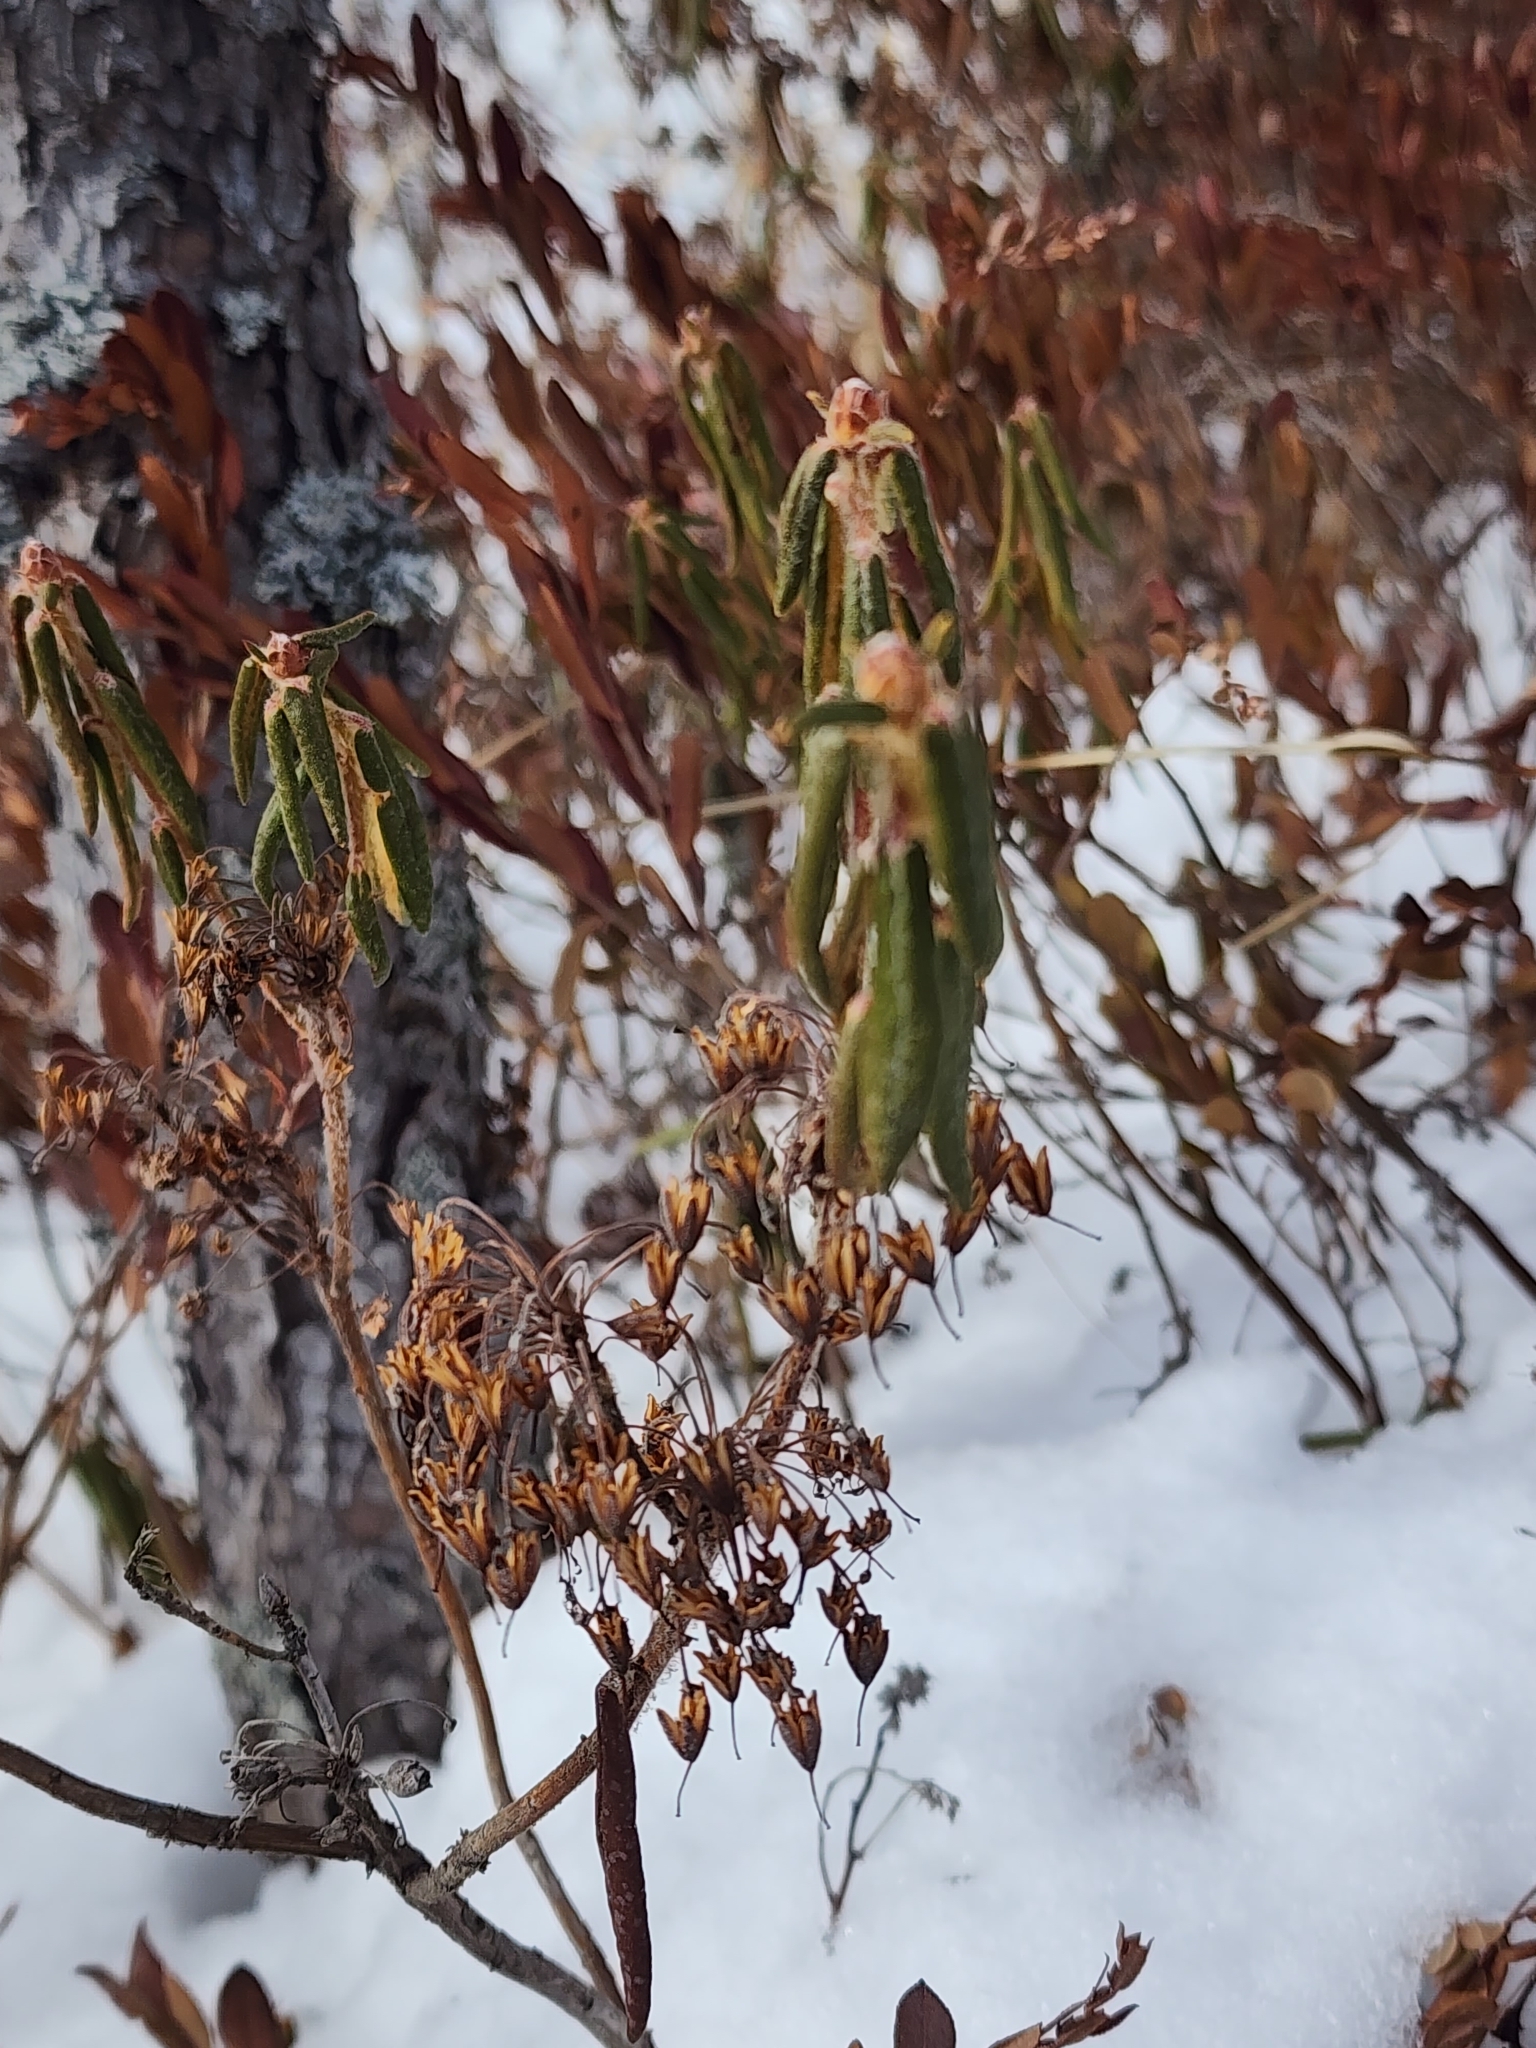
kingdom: Plantae
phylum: Tracheophyta
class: Magnoliopsida
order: Ericales
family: Ericaceae
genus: Rhododendron
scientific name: Rhododendron groenlandicum
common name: Bog labrador tea
